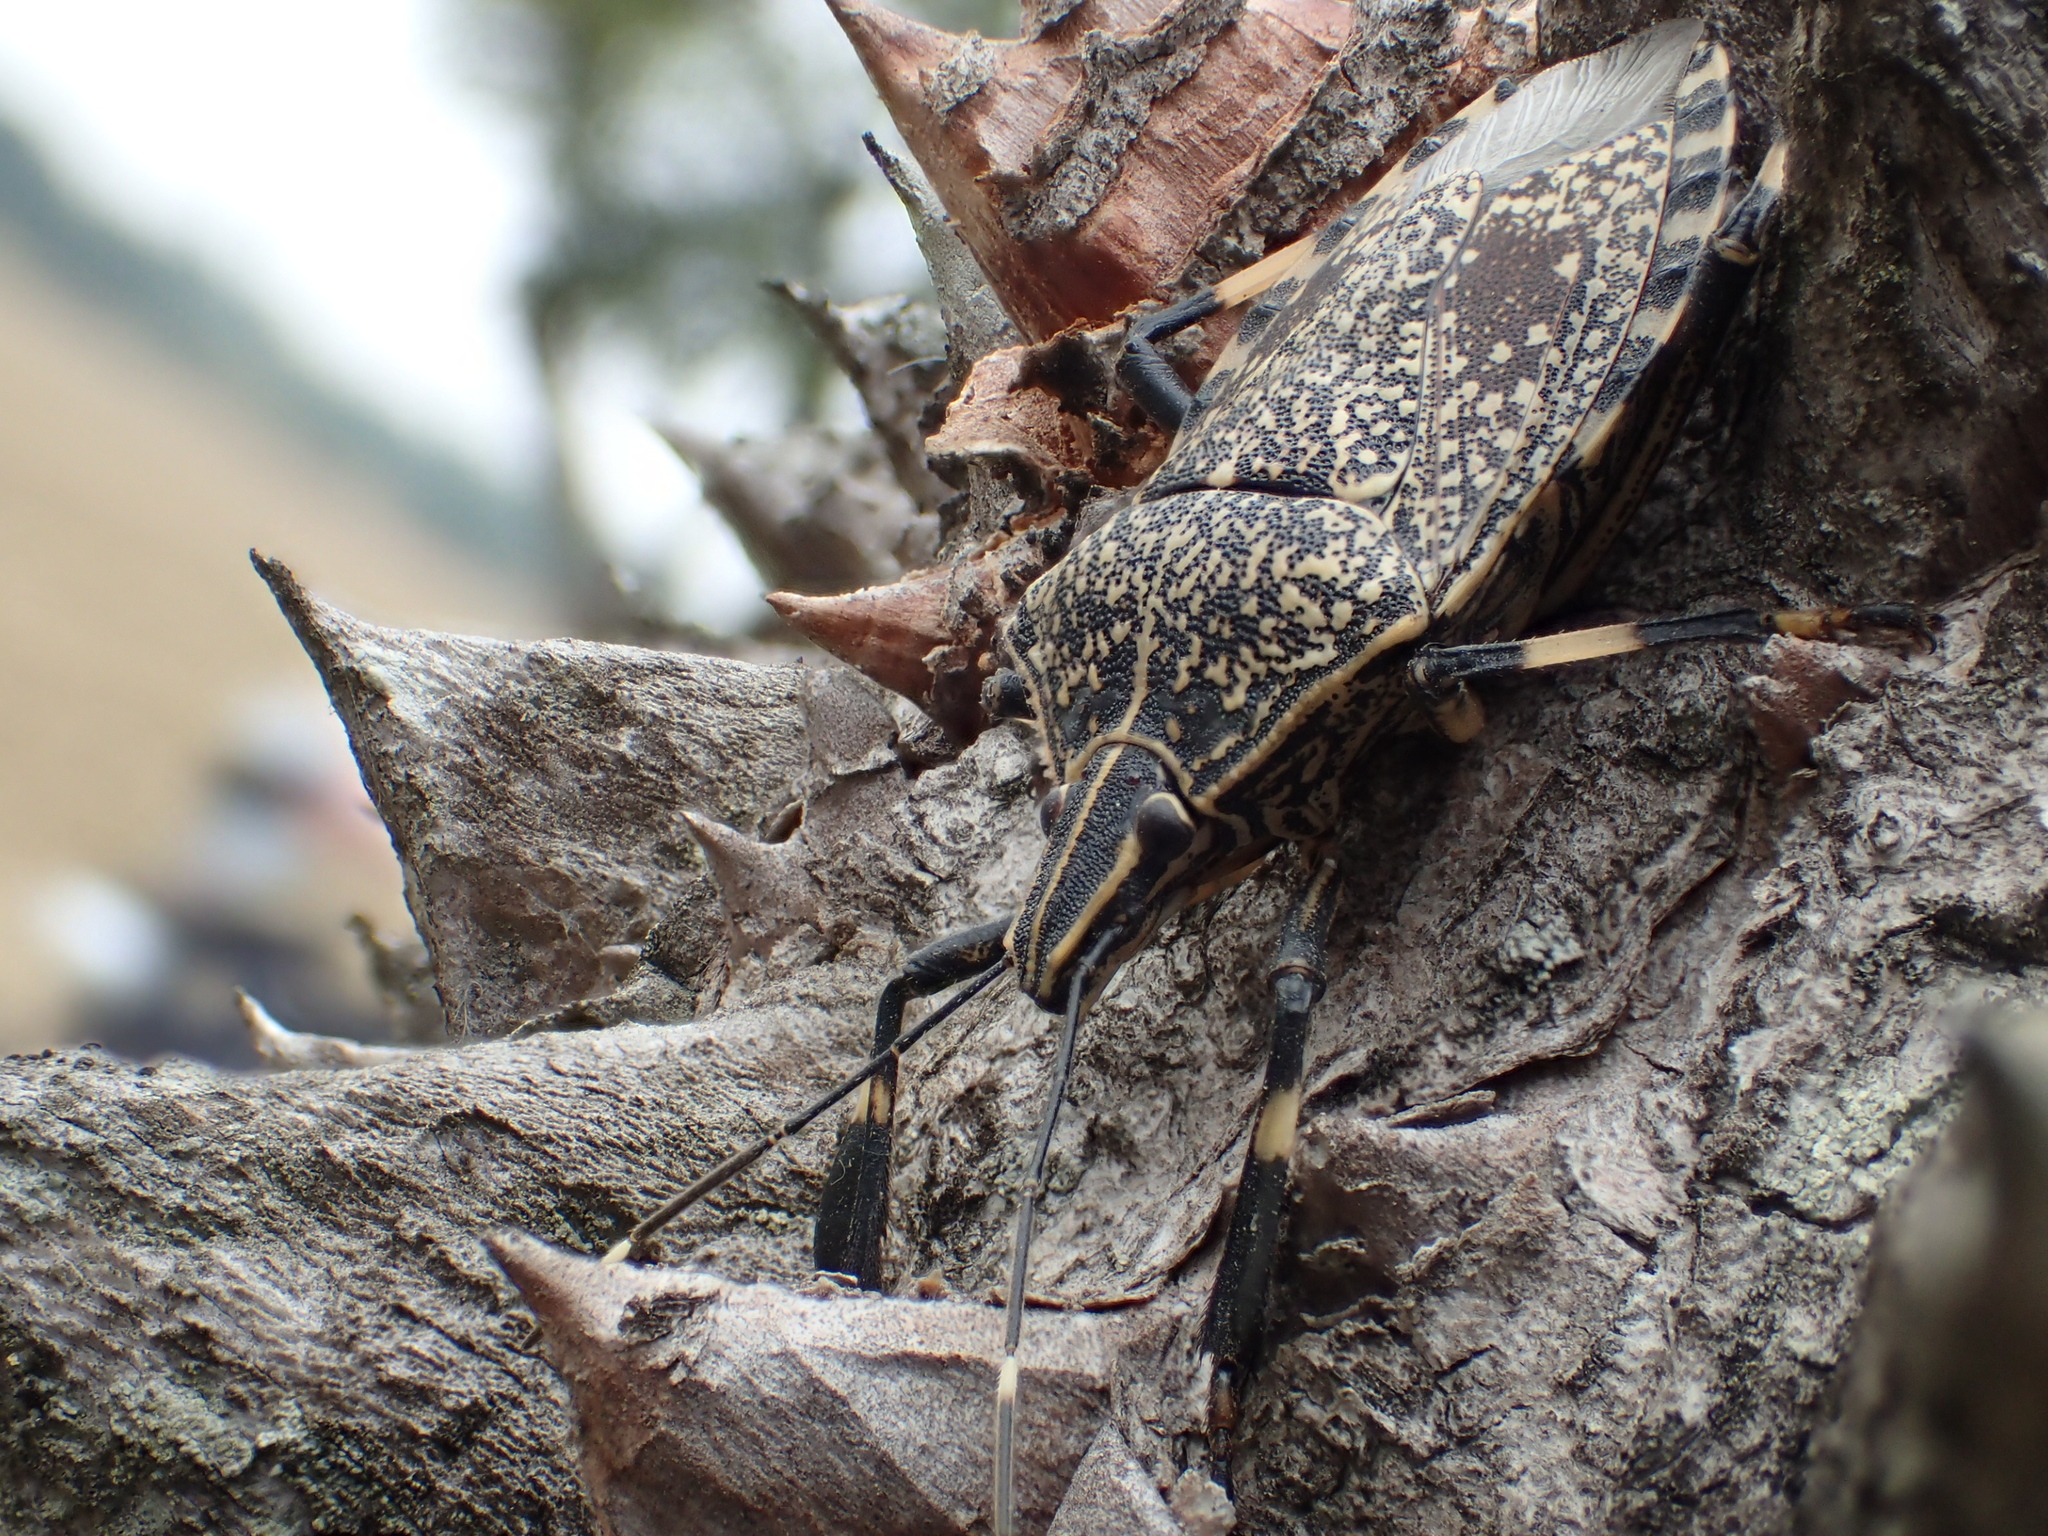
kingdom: Animalia
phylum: Arthropoda
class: Insecta
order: Hemiptera
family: Pentatomidae
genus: Erthesina
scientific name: Erthesina fullo
